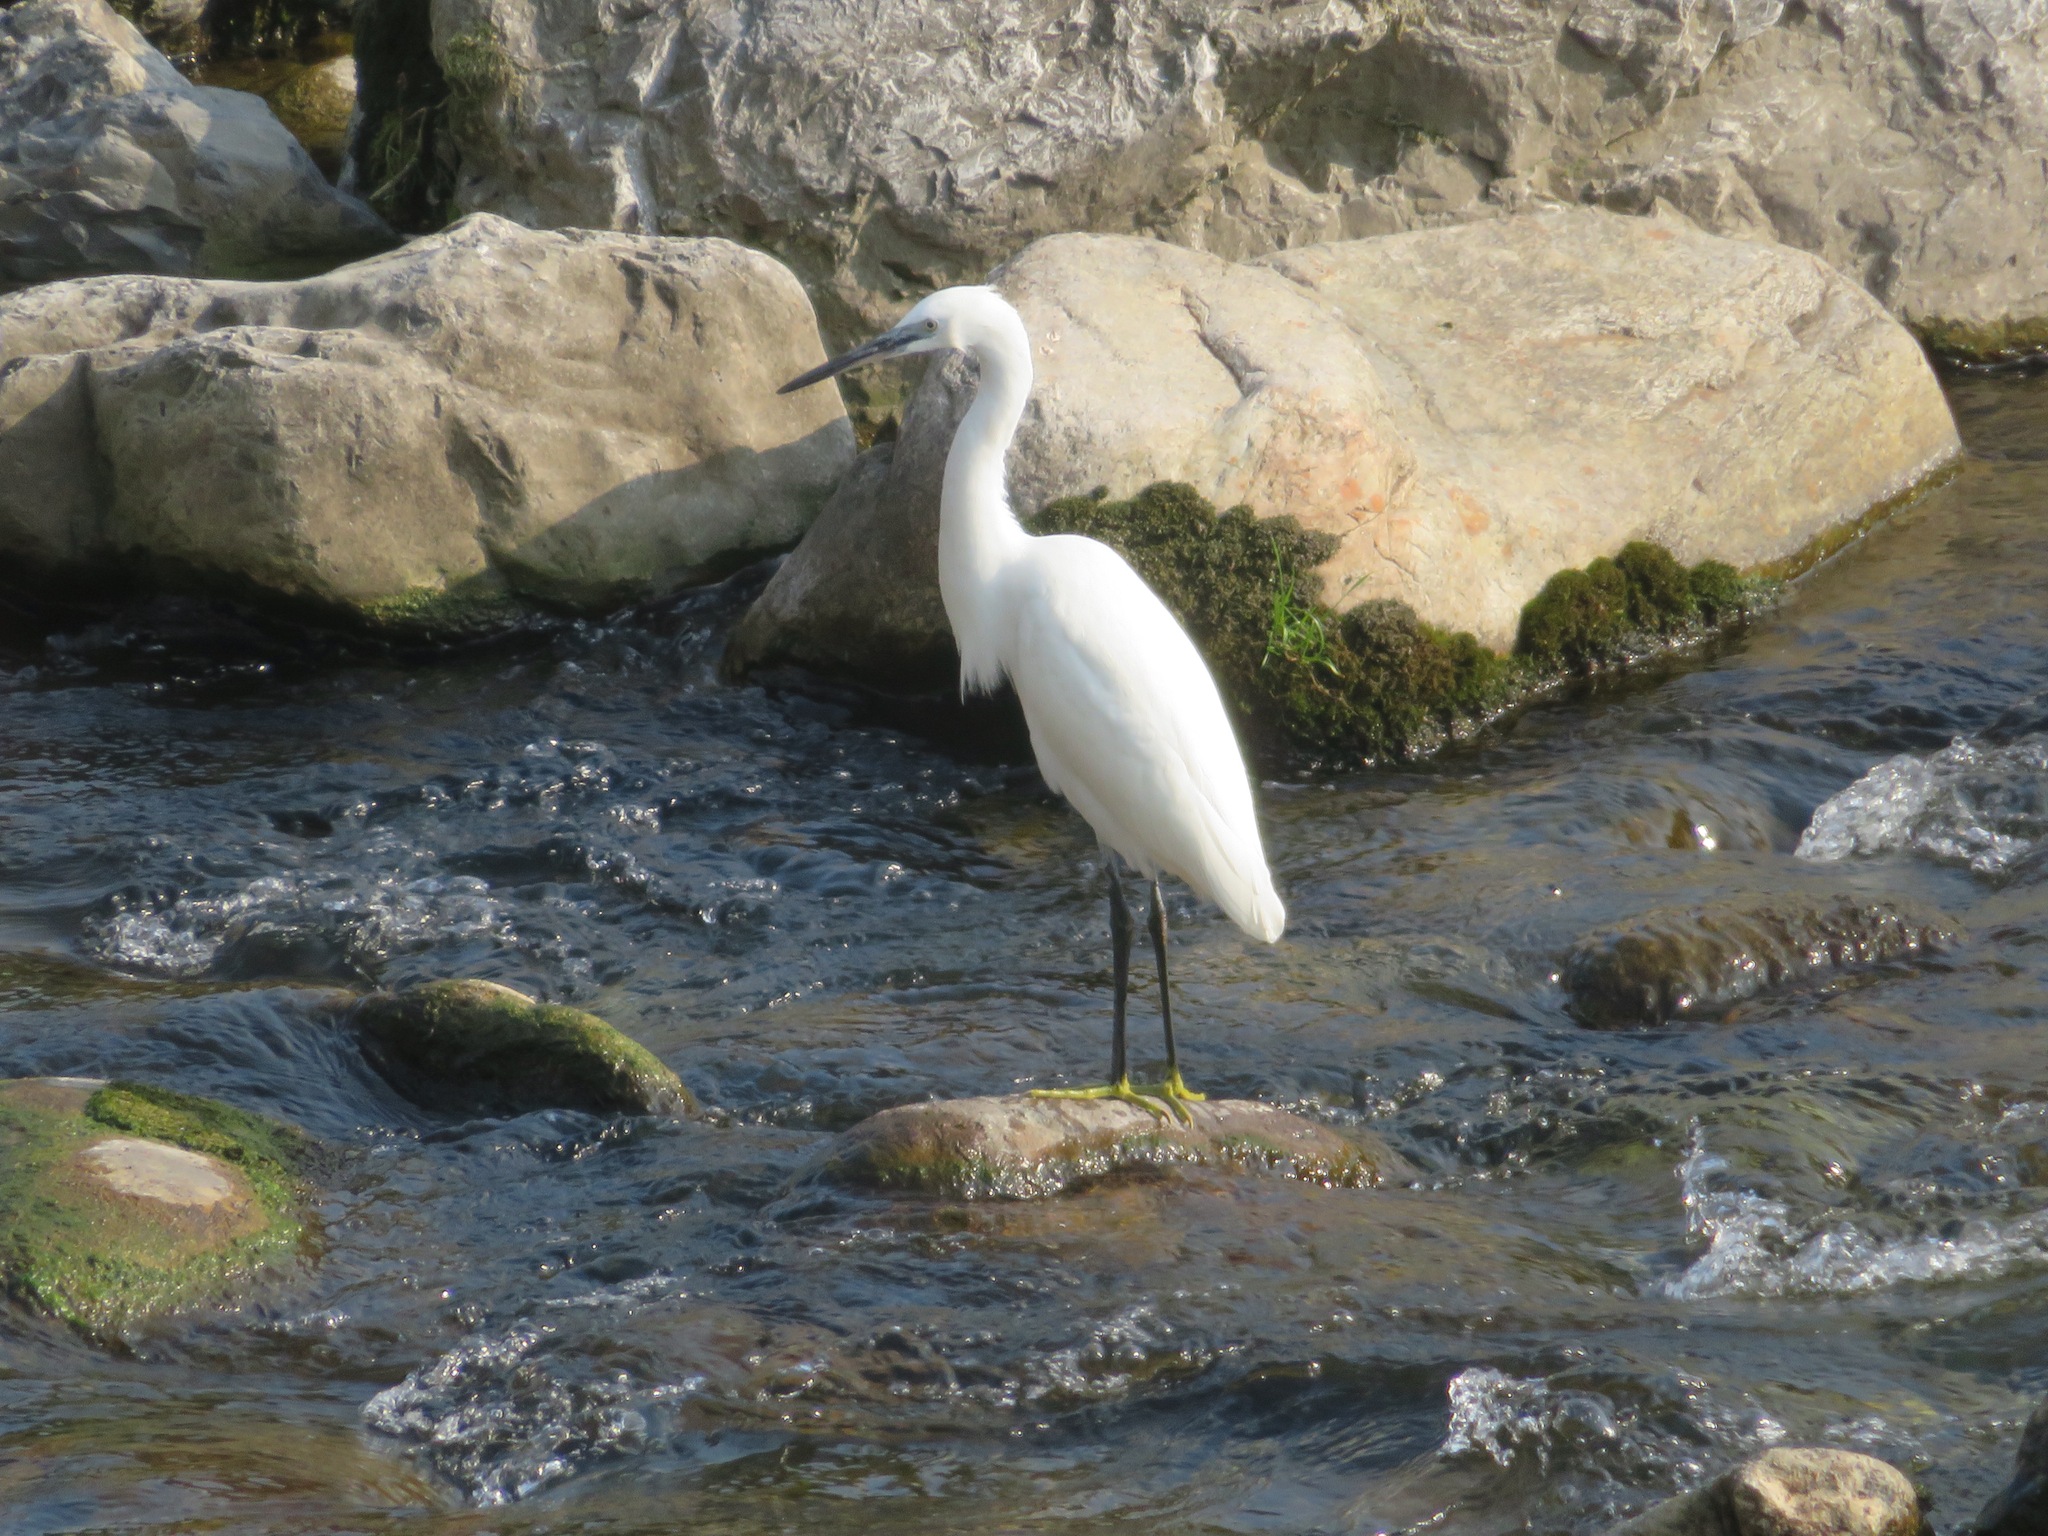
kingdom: Animalia
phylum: Chordata
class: Aves
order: Pelecaniformes
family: Ardeidae
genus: Egretta
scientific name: Egretta garzetta
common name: Little egret
